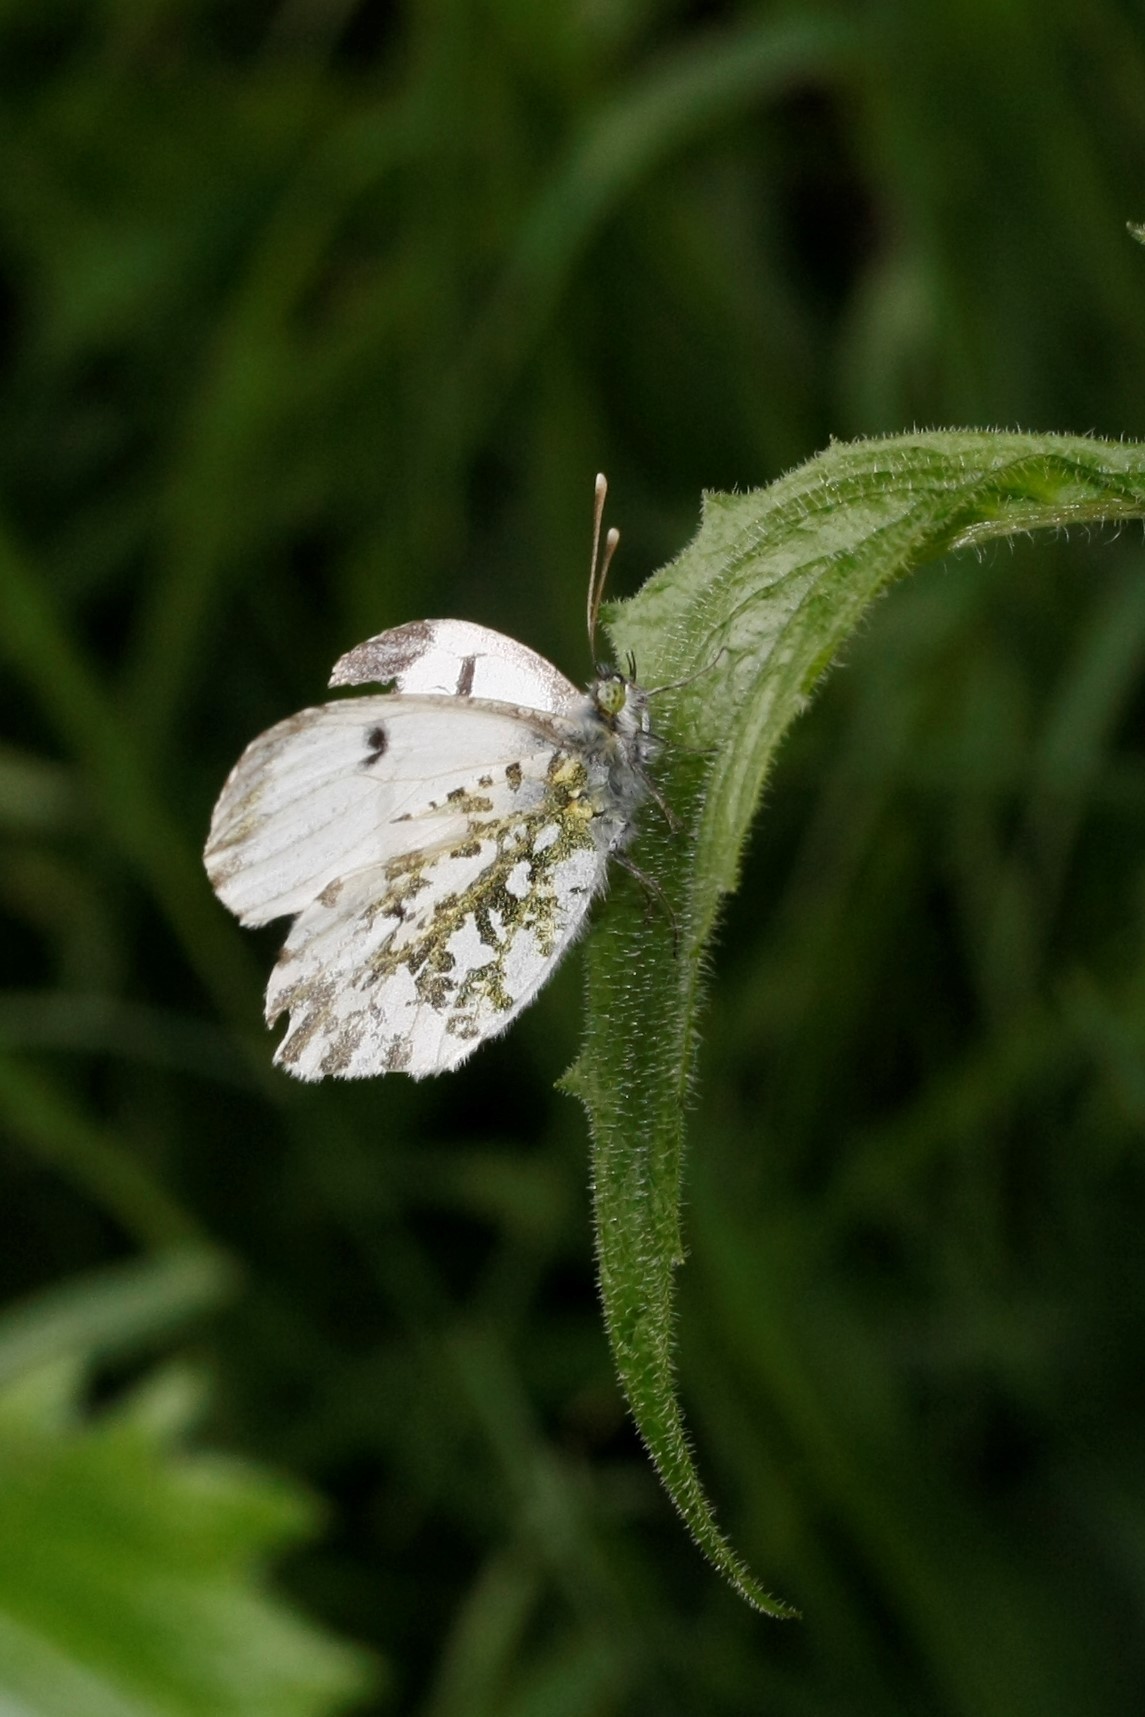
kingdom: Animalia
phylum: Arthropoda
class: Insecta
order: Lepidoptera
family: Pieridae
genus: Anthocharis
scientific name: Anthocharis cardamines
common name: Orange-tip
